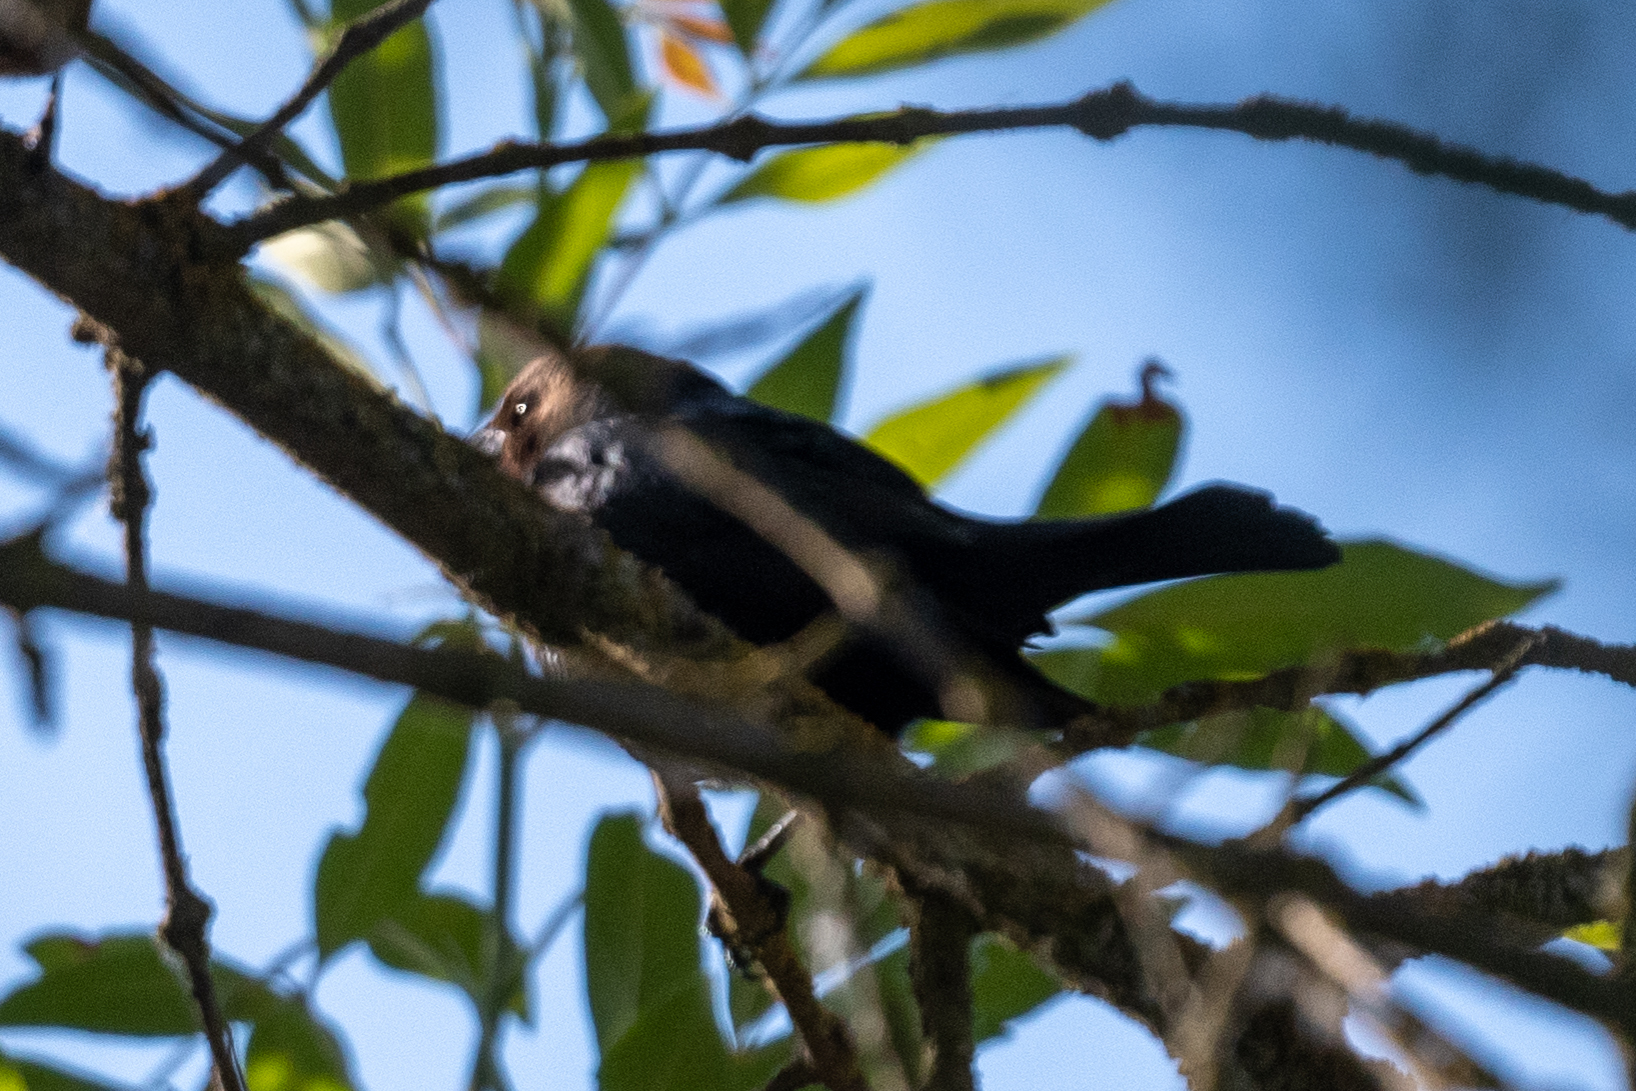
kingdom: Animalia
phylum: Chordata
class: Aves
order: Passeriformes
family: Icteridae
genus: Molothrus
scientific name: Molothrus ater
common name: Brown-headed cowbird
